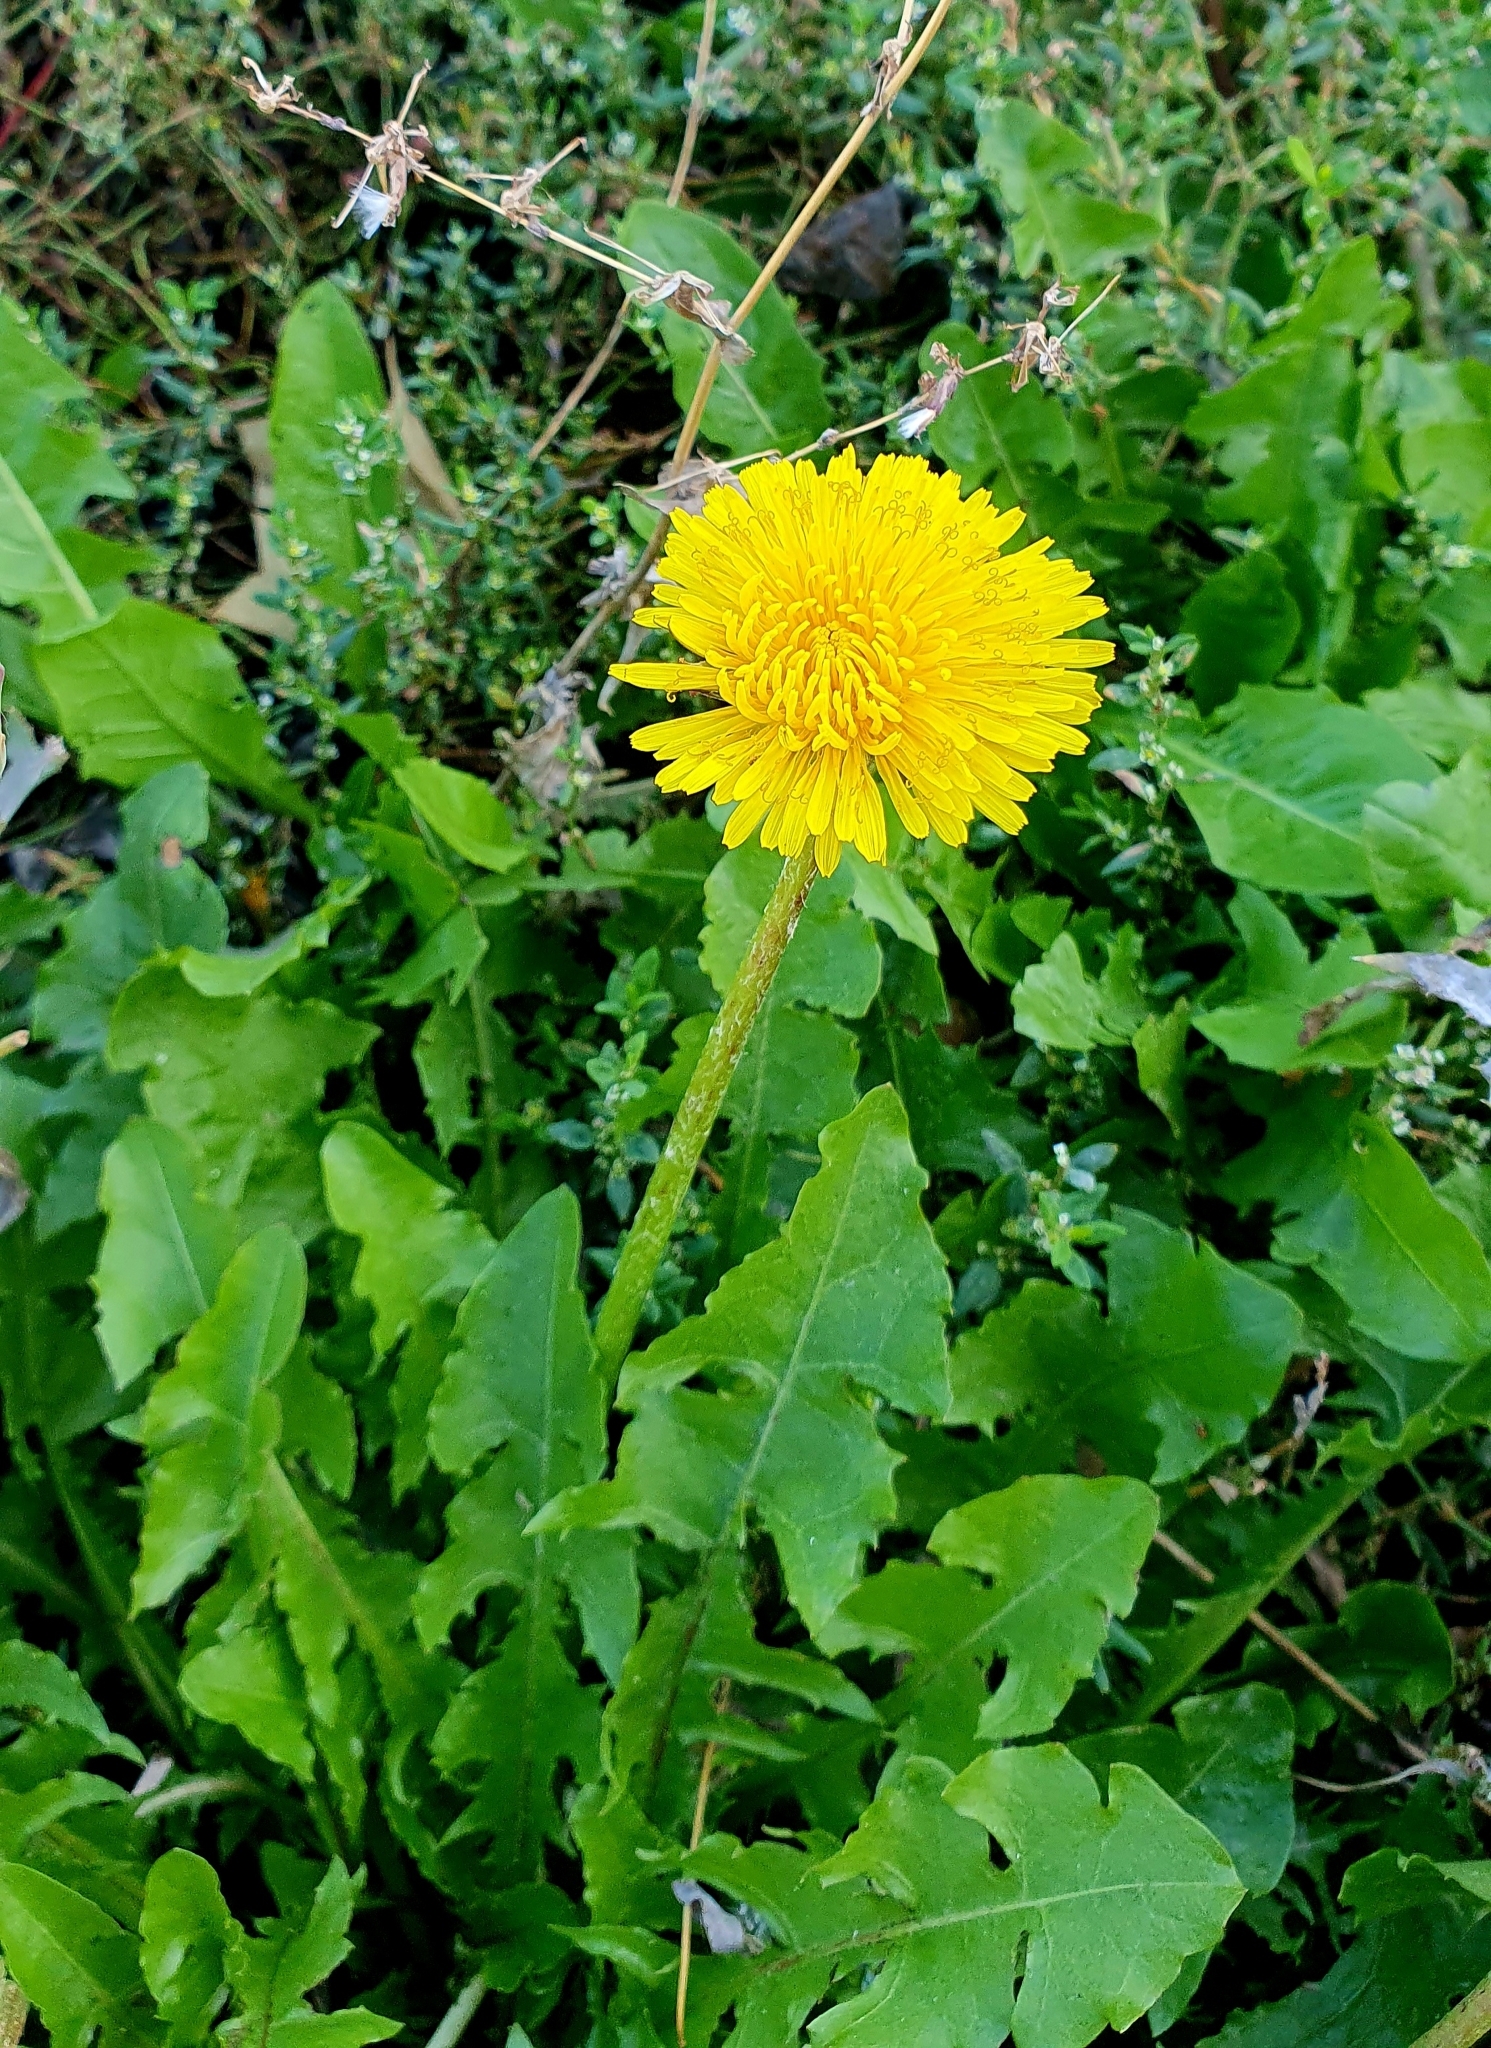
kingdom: Plantae
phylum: Tracheophyta
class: Magnoliopsida
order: Asterales
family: Asteraceae
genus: Taraxacum
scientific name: Taraxacum officinale
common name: Common dandelion
